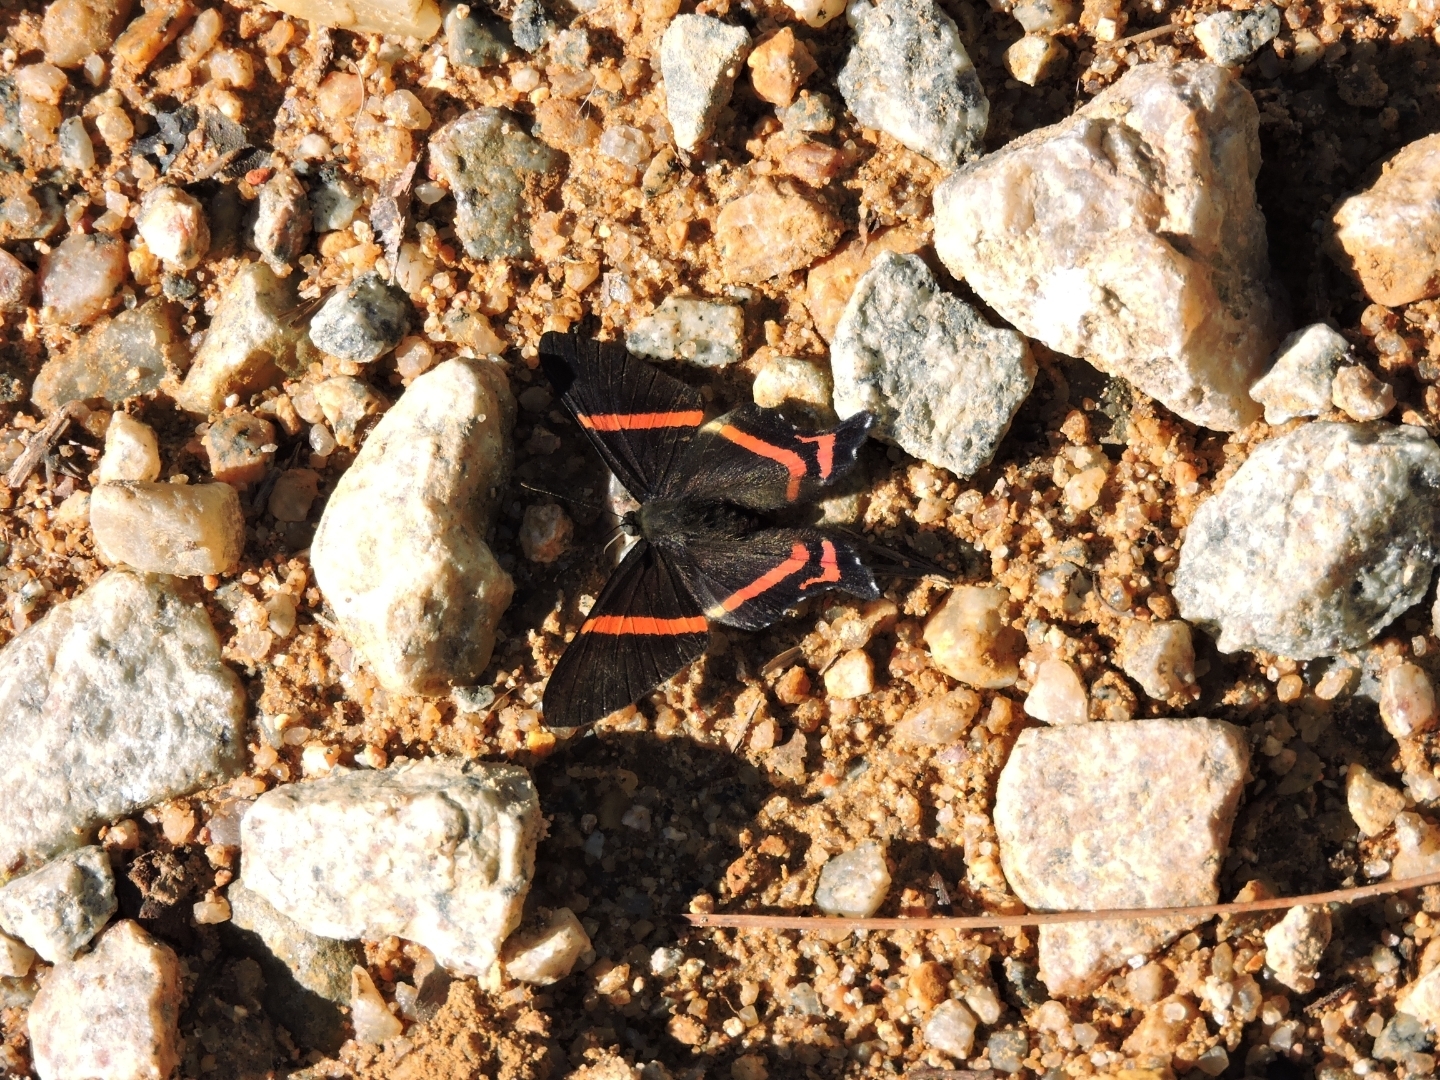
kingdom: Animalia
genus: Ancyluris
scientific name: Ancyluris aulestes
